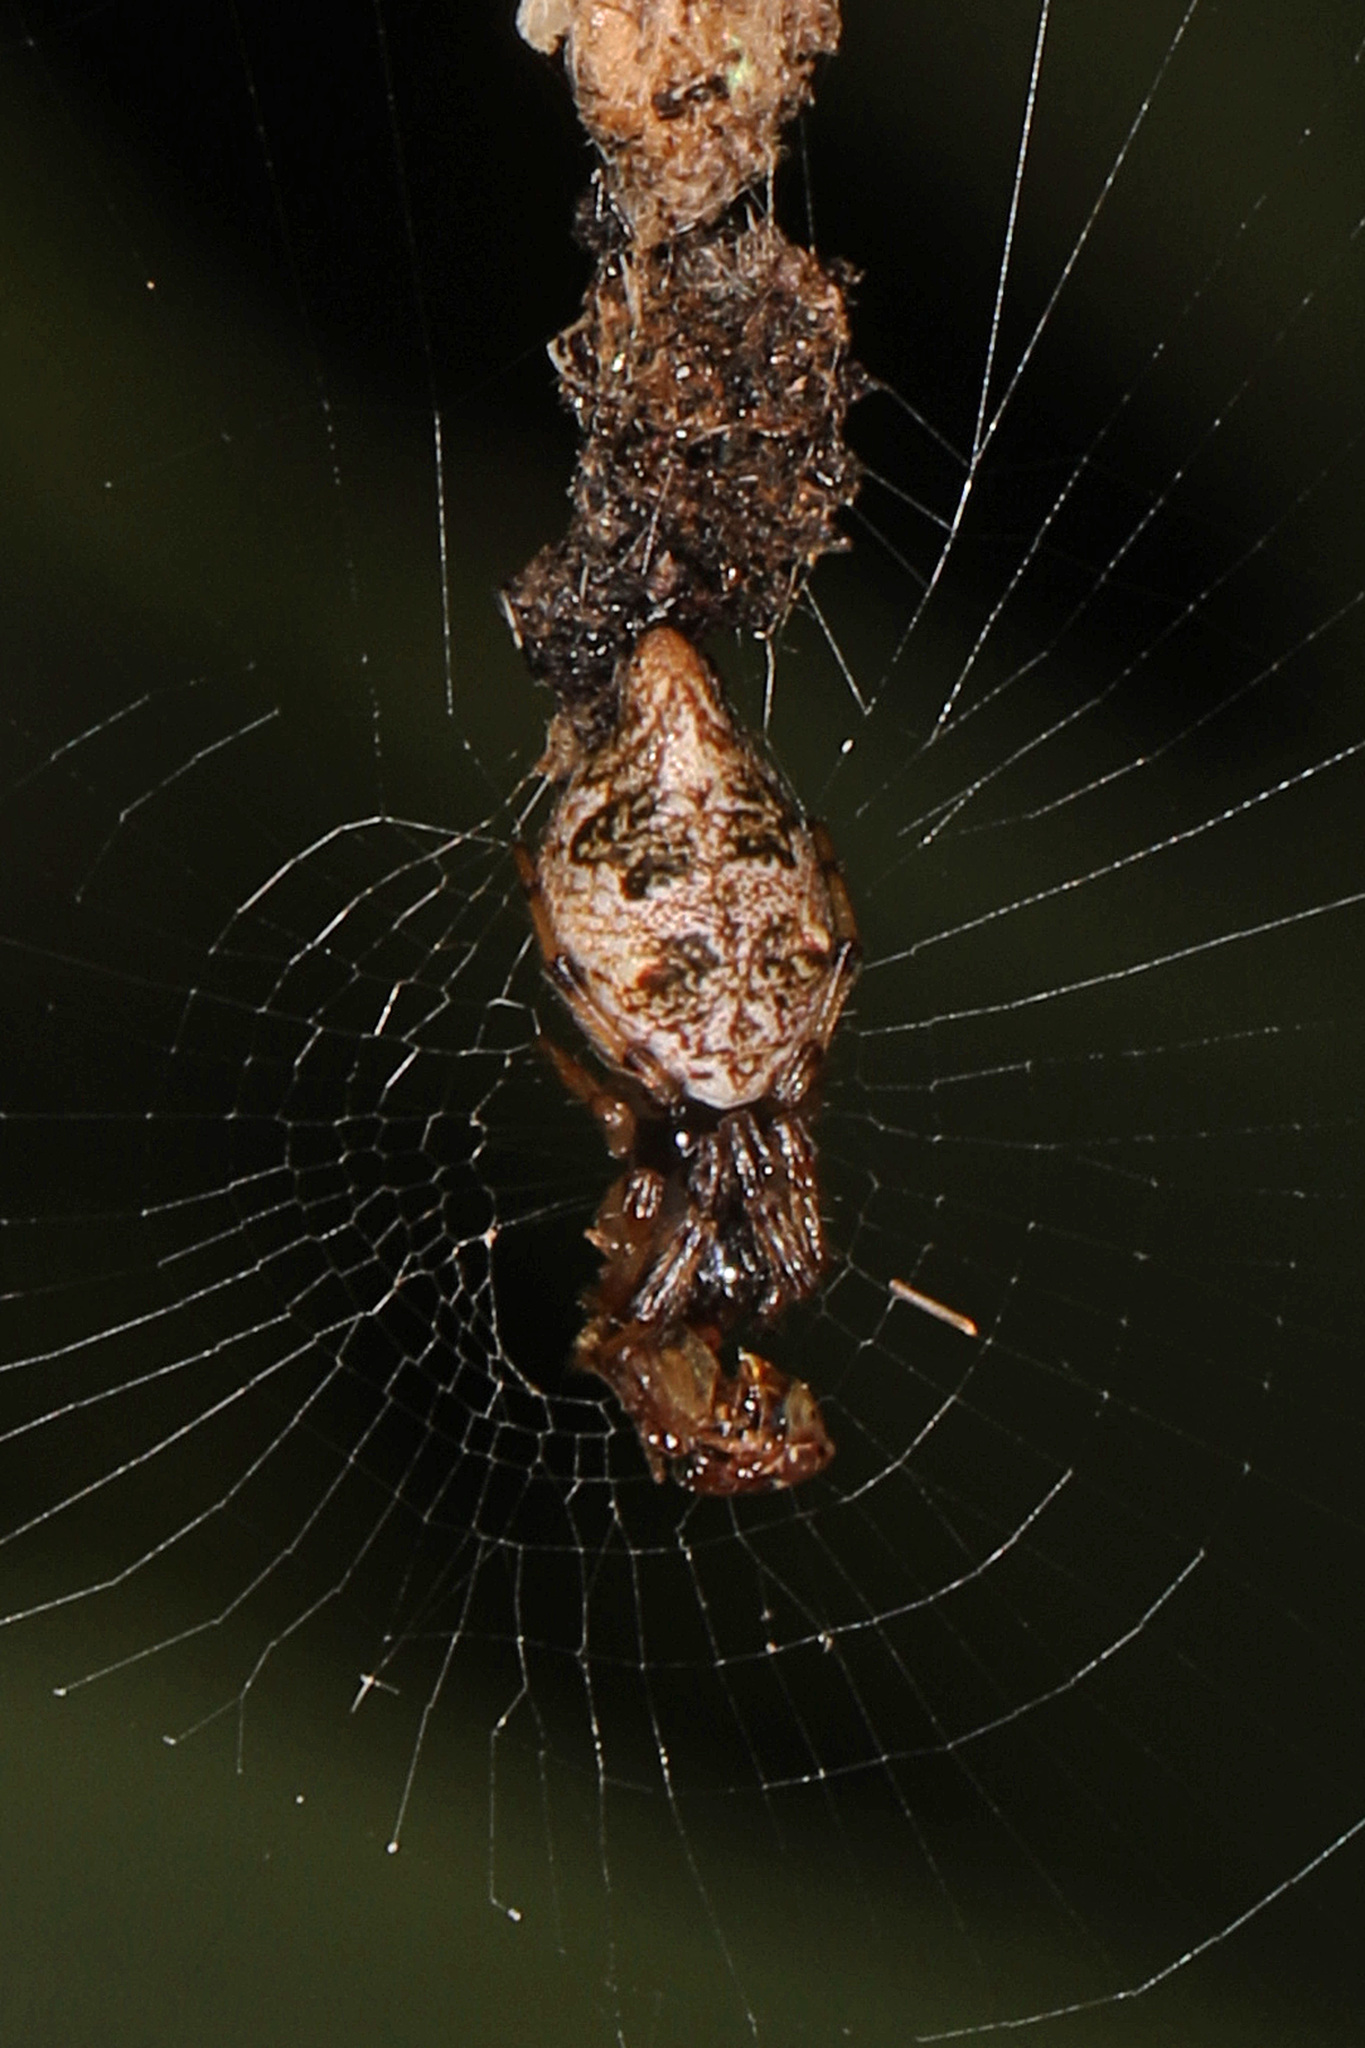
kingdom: Animalia
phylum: Arthropoda
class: Arachnida
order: Araneae
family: Araneidae
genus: Cyclosa
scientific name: Cyclosa turbinata
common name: Orb weavers
